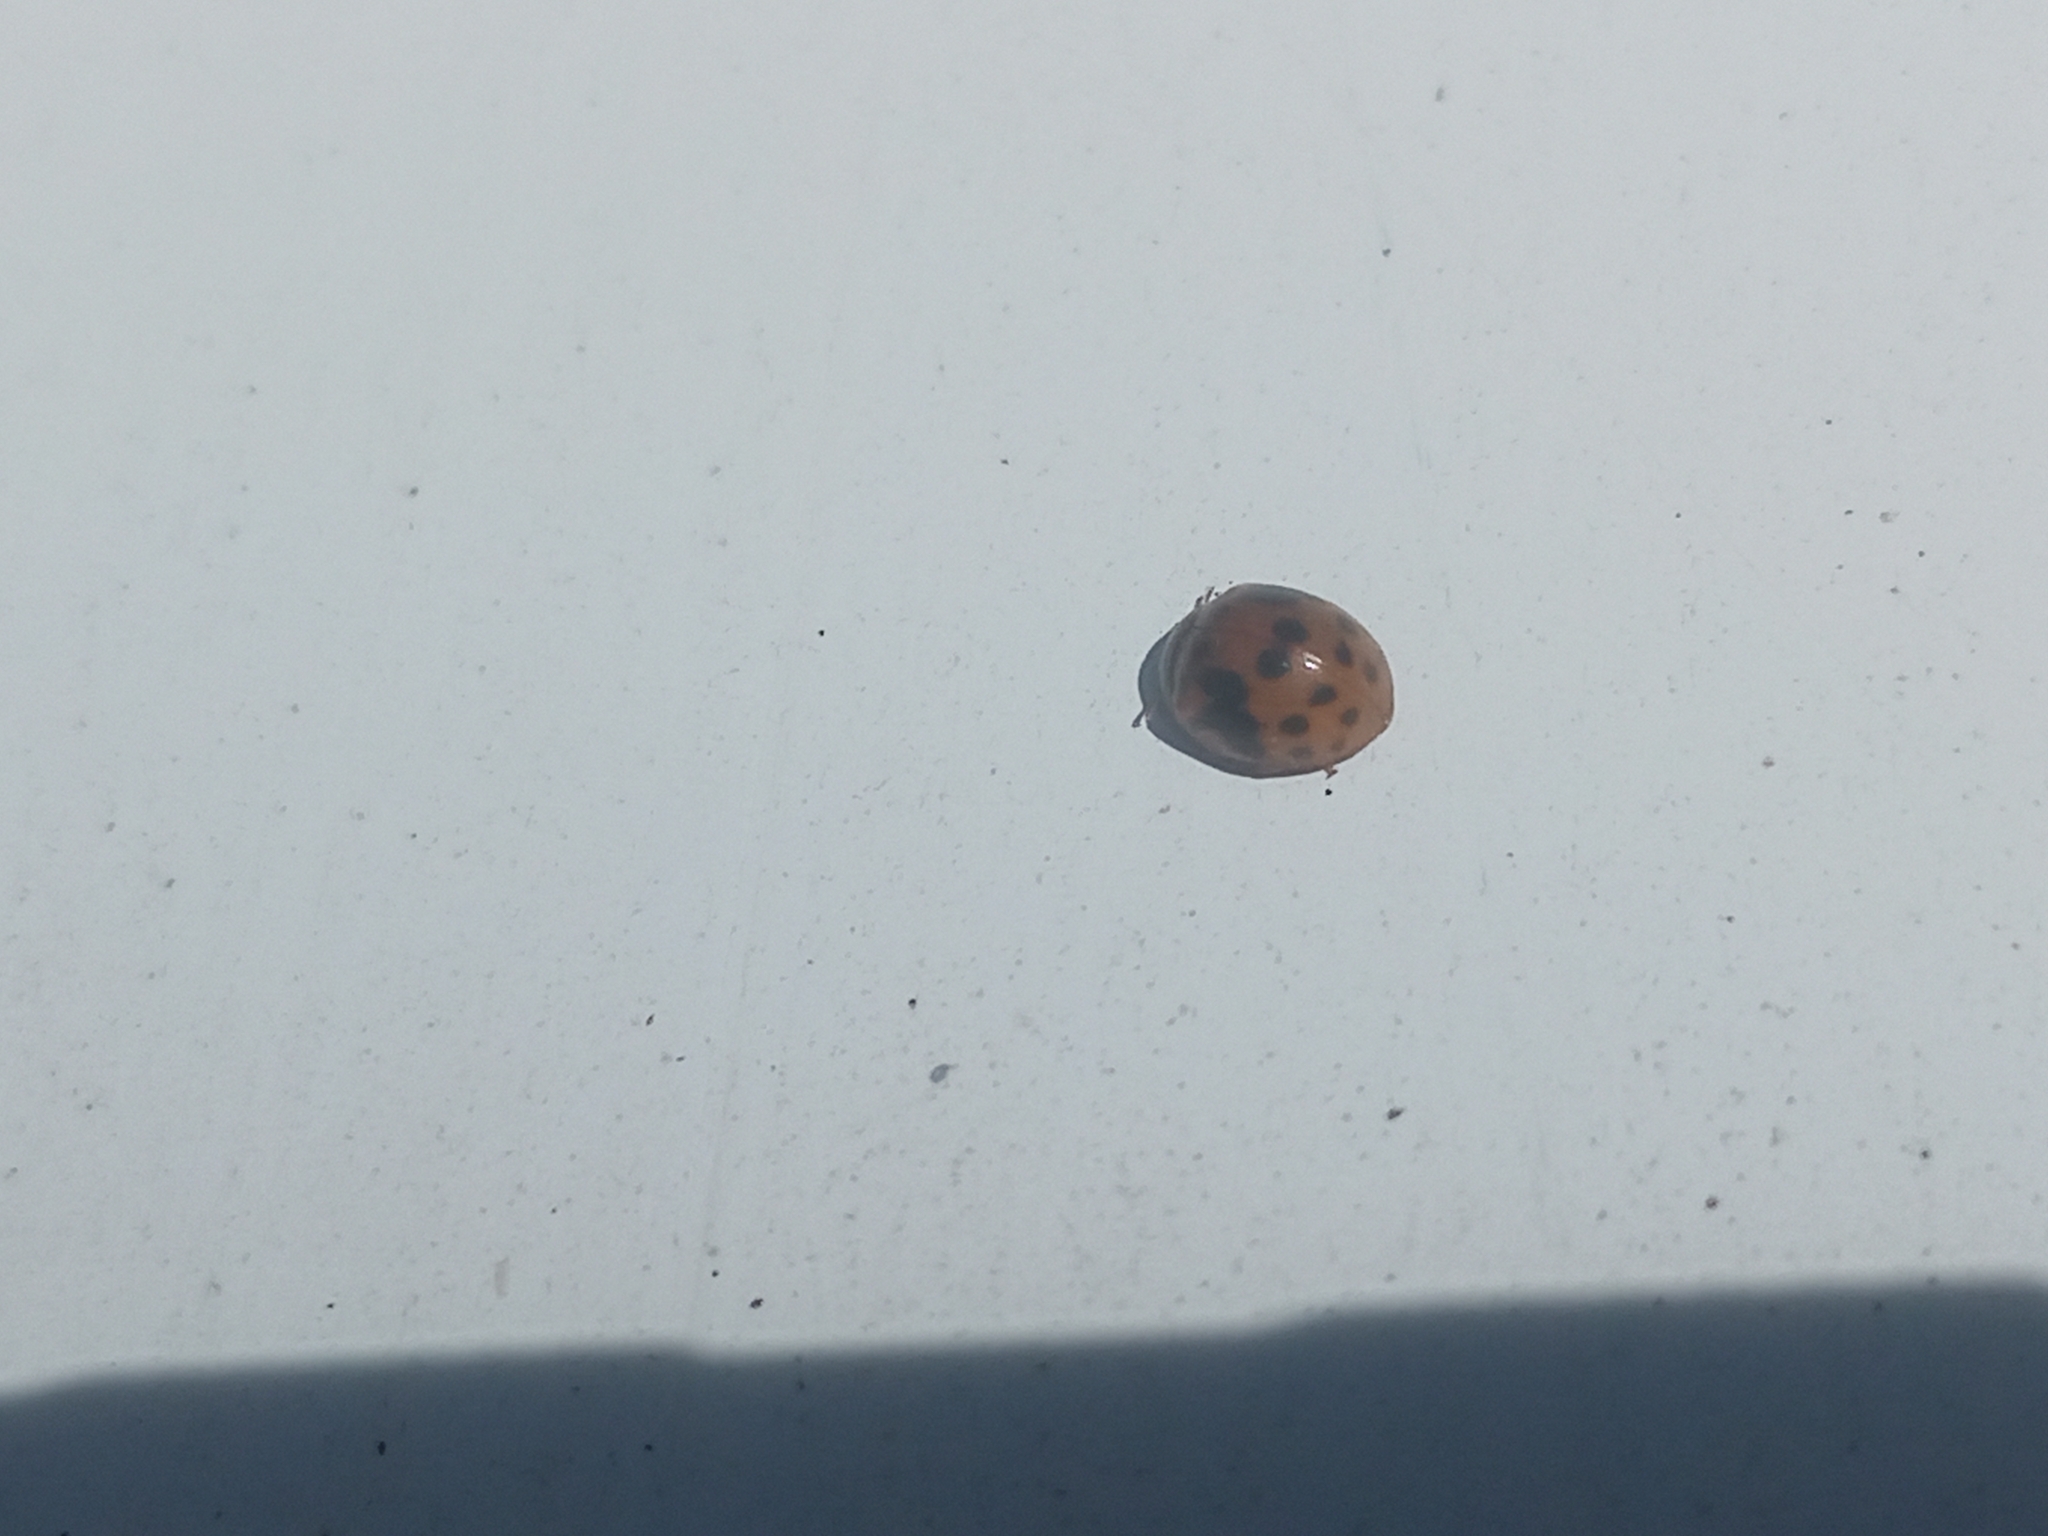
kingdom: Animalia
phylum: Arthropoda
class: Insecta
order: Coleoptera
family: Coccinellidae
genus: Subcoccinella
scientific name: Subcoccinella vigintiquatuorpunctata
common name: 24-spot ladybird
